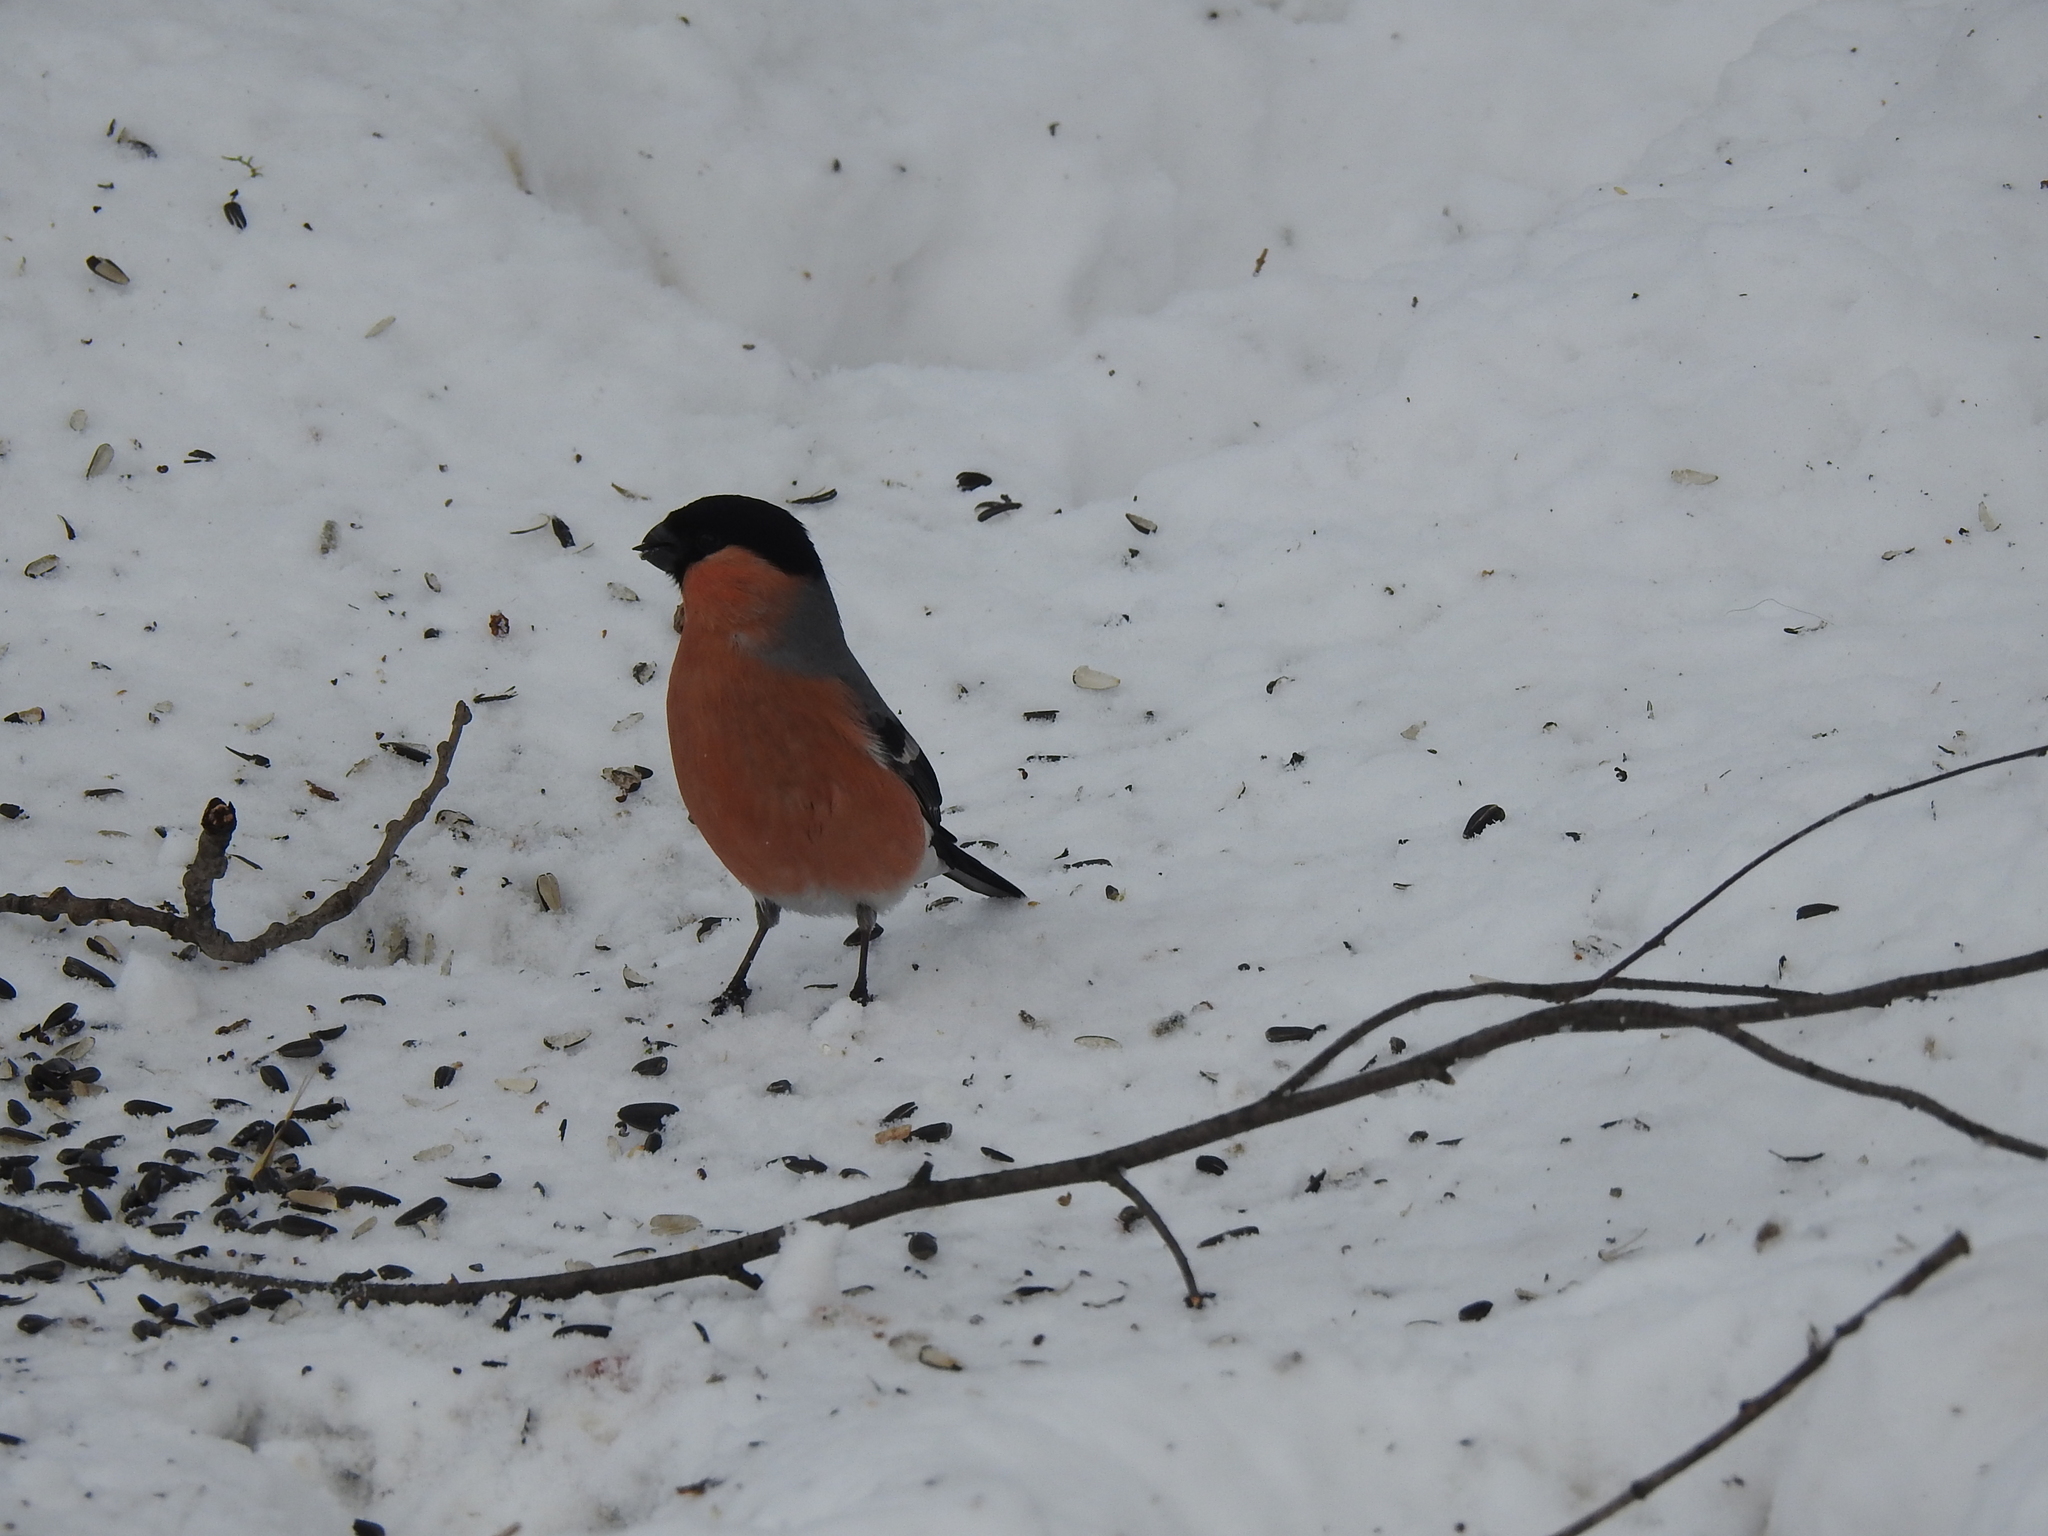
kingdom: Animalia
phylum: Chordata
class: Aves
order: Passeriformes
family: Fringillidae
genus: Pyrrhula
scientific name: Pyrrhula pyrrhula
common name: Eurasian bullfinch
